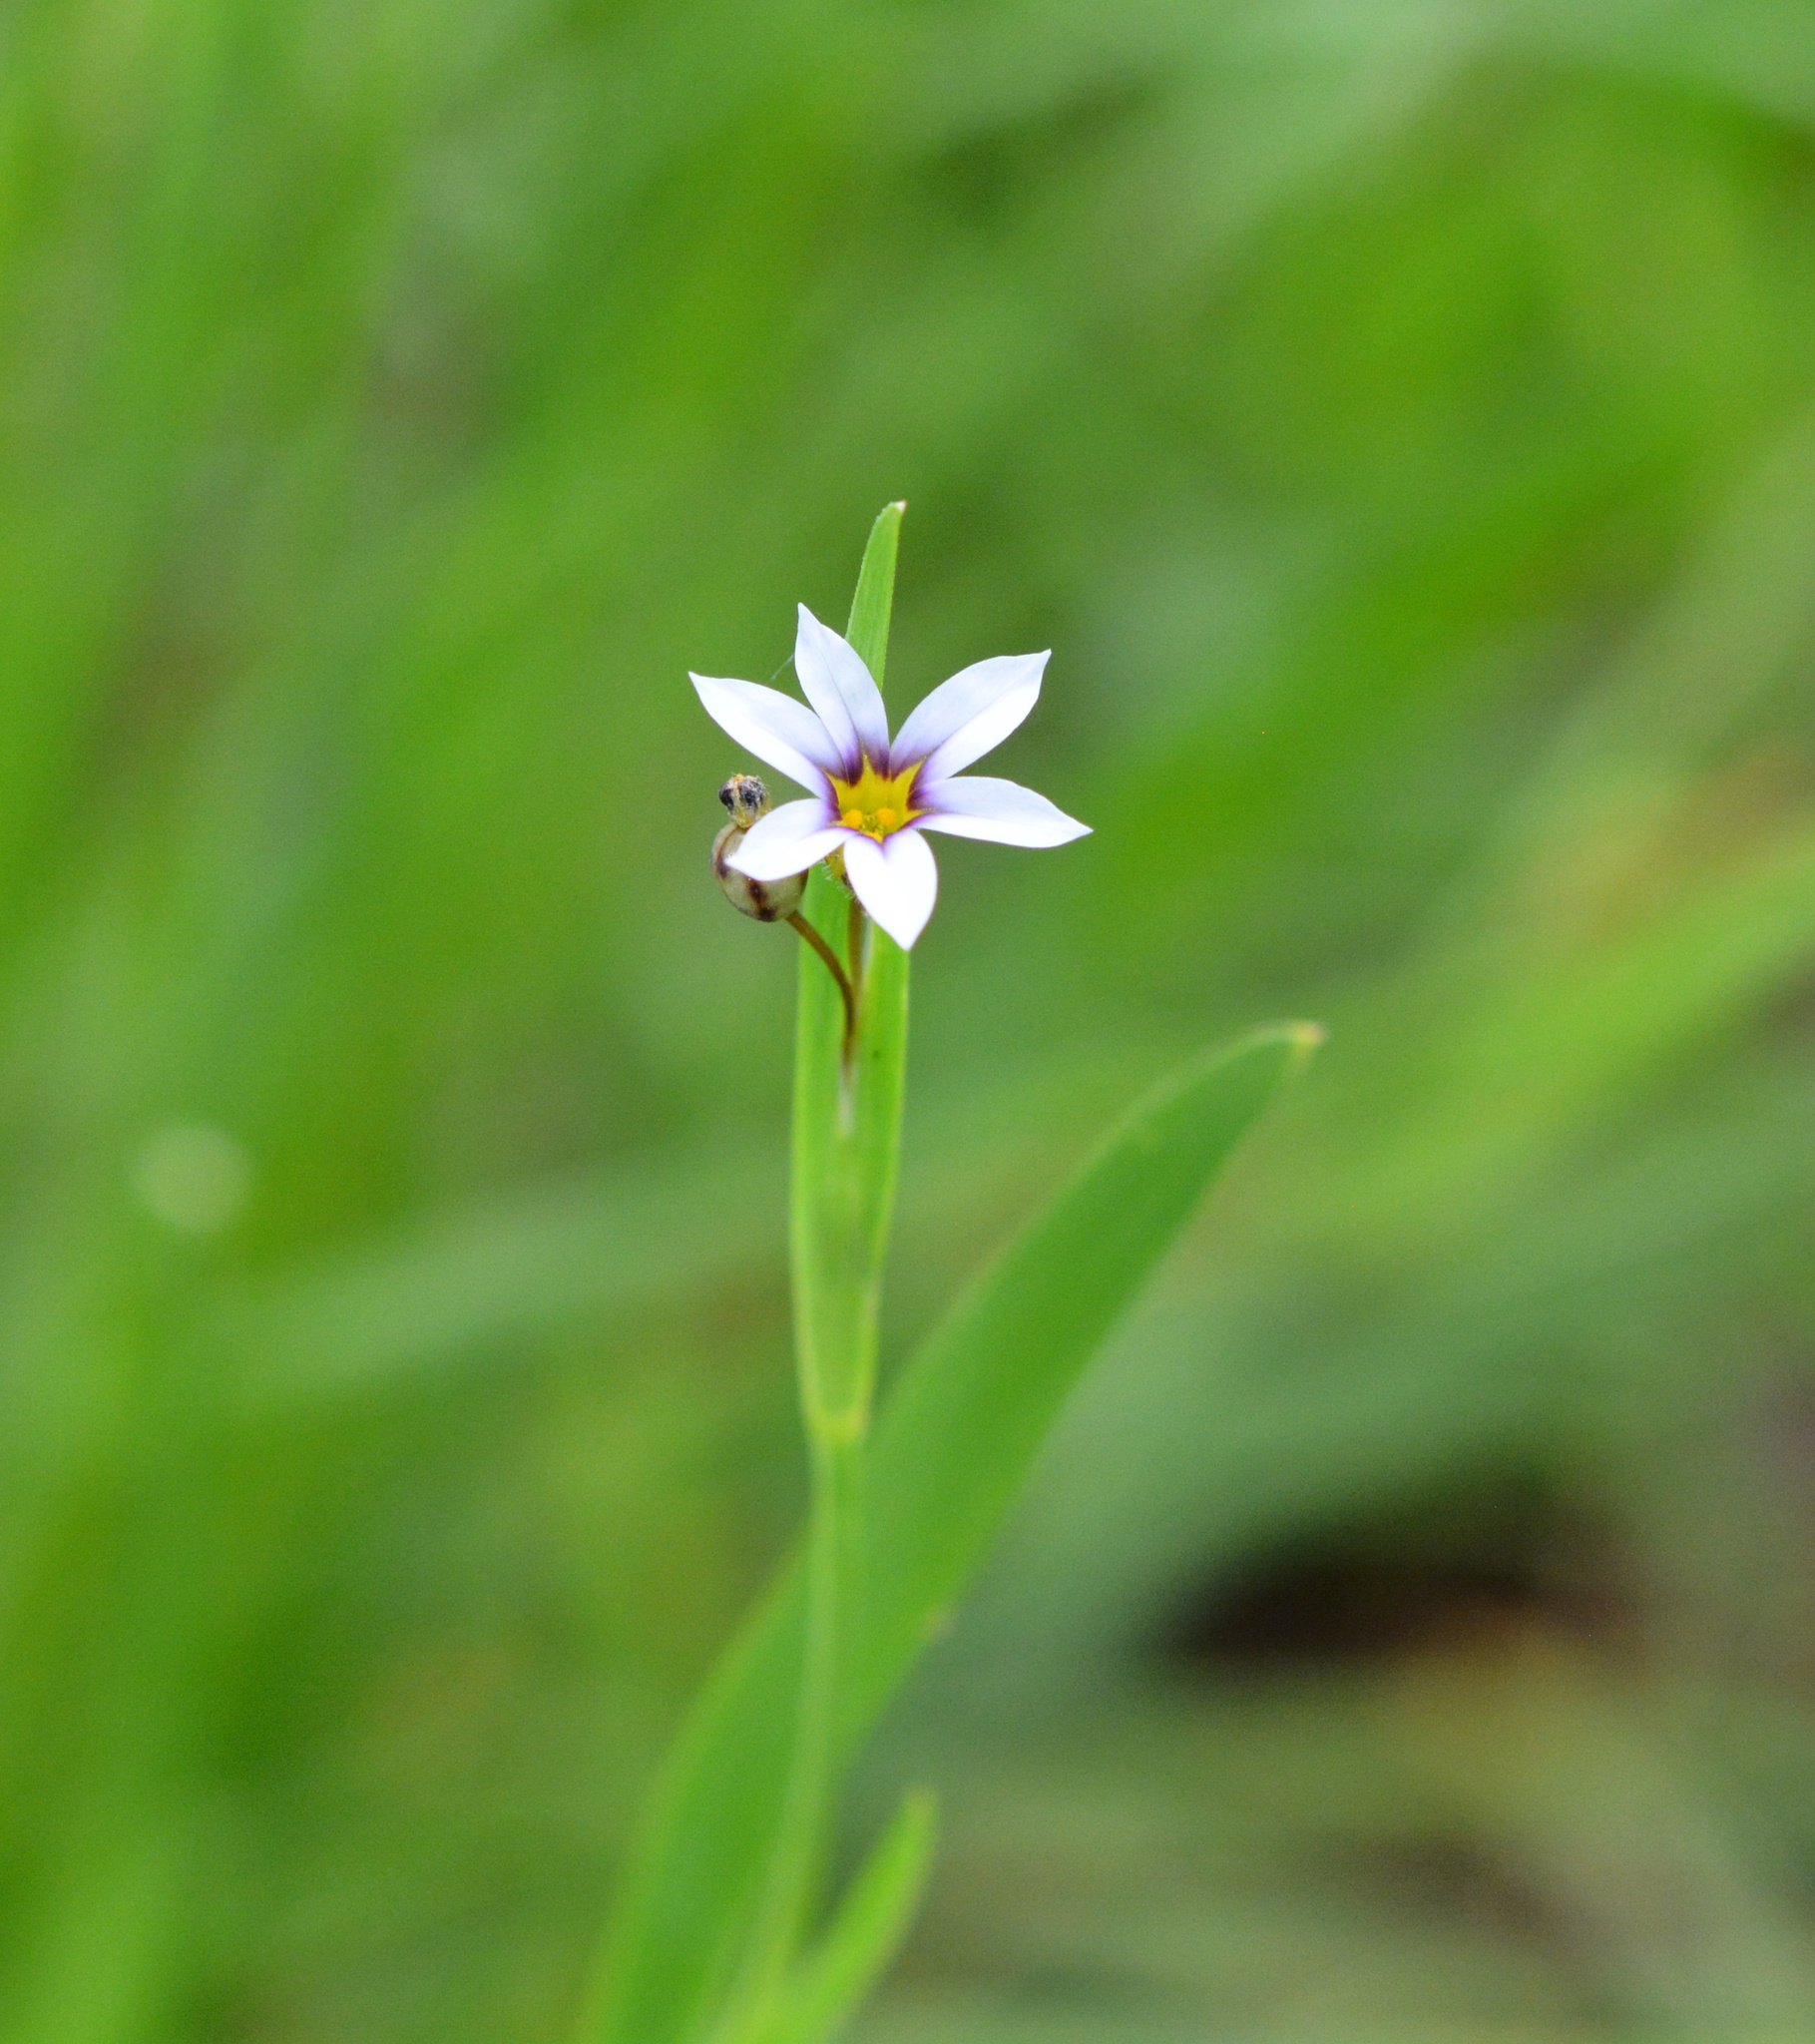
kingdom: Plantae
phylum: Tracheophyta
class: Liliopsida
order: Asparagales
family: Iridaceae
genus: Sisyrinchium
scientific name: Sisyrinchium micranthum
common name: Bermuda pigroot
